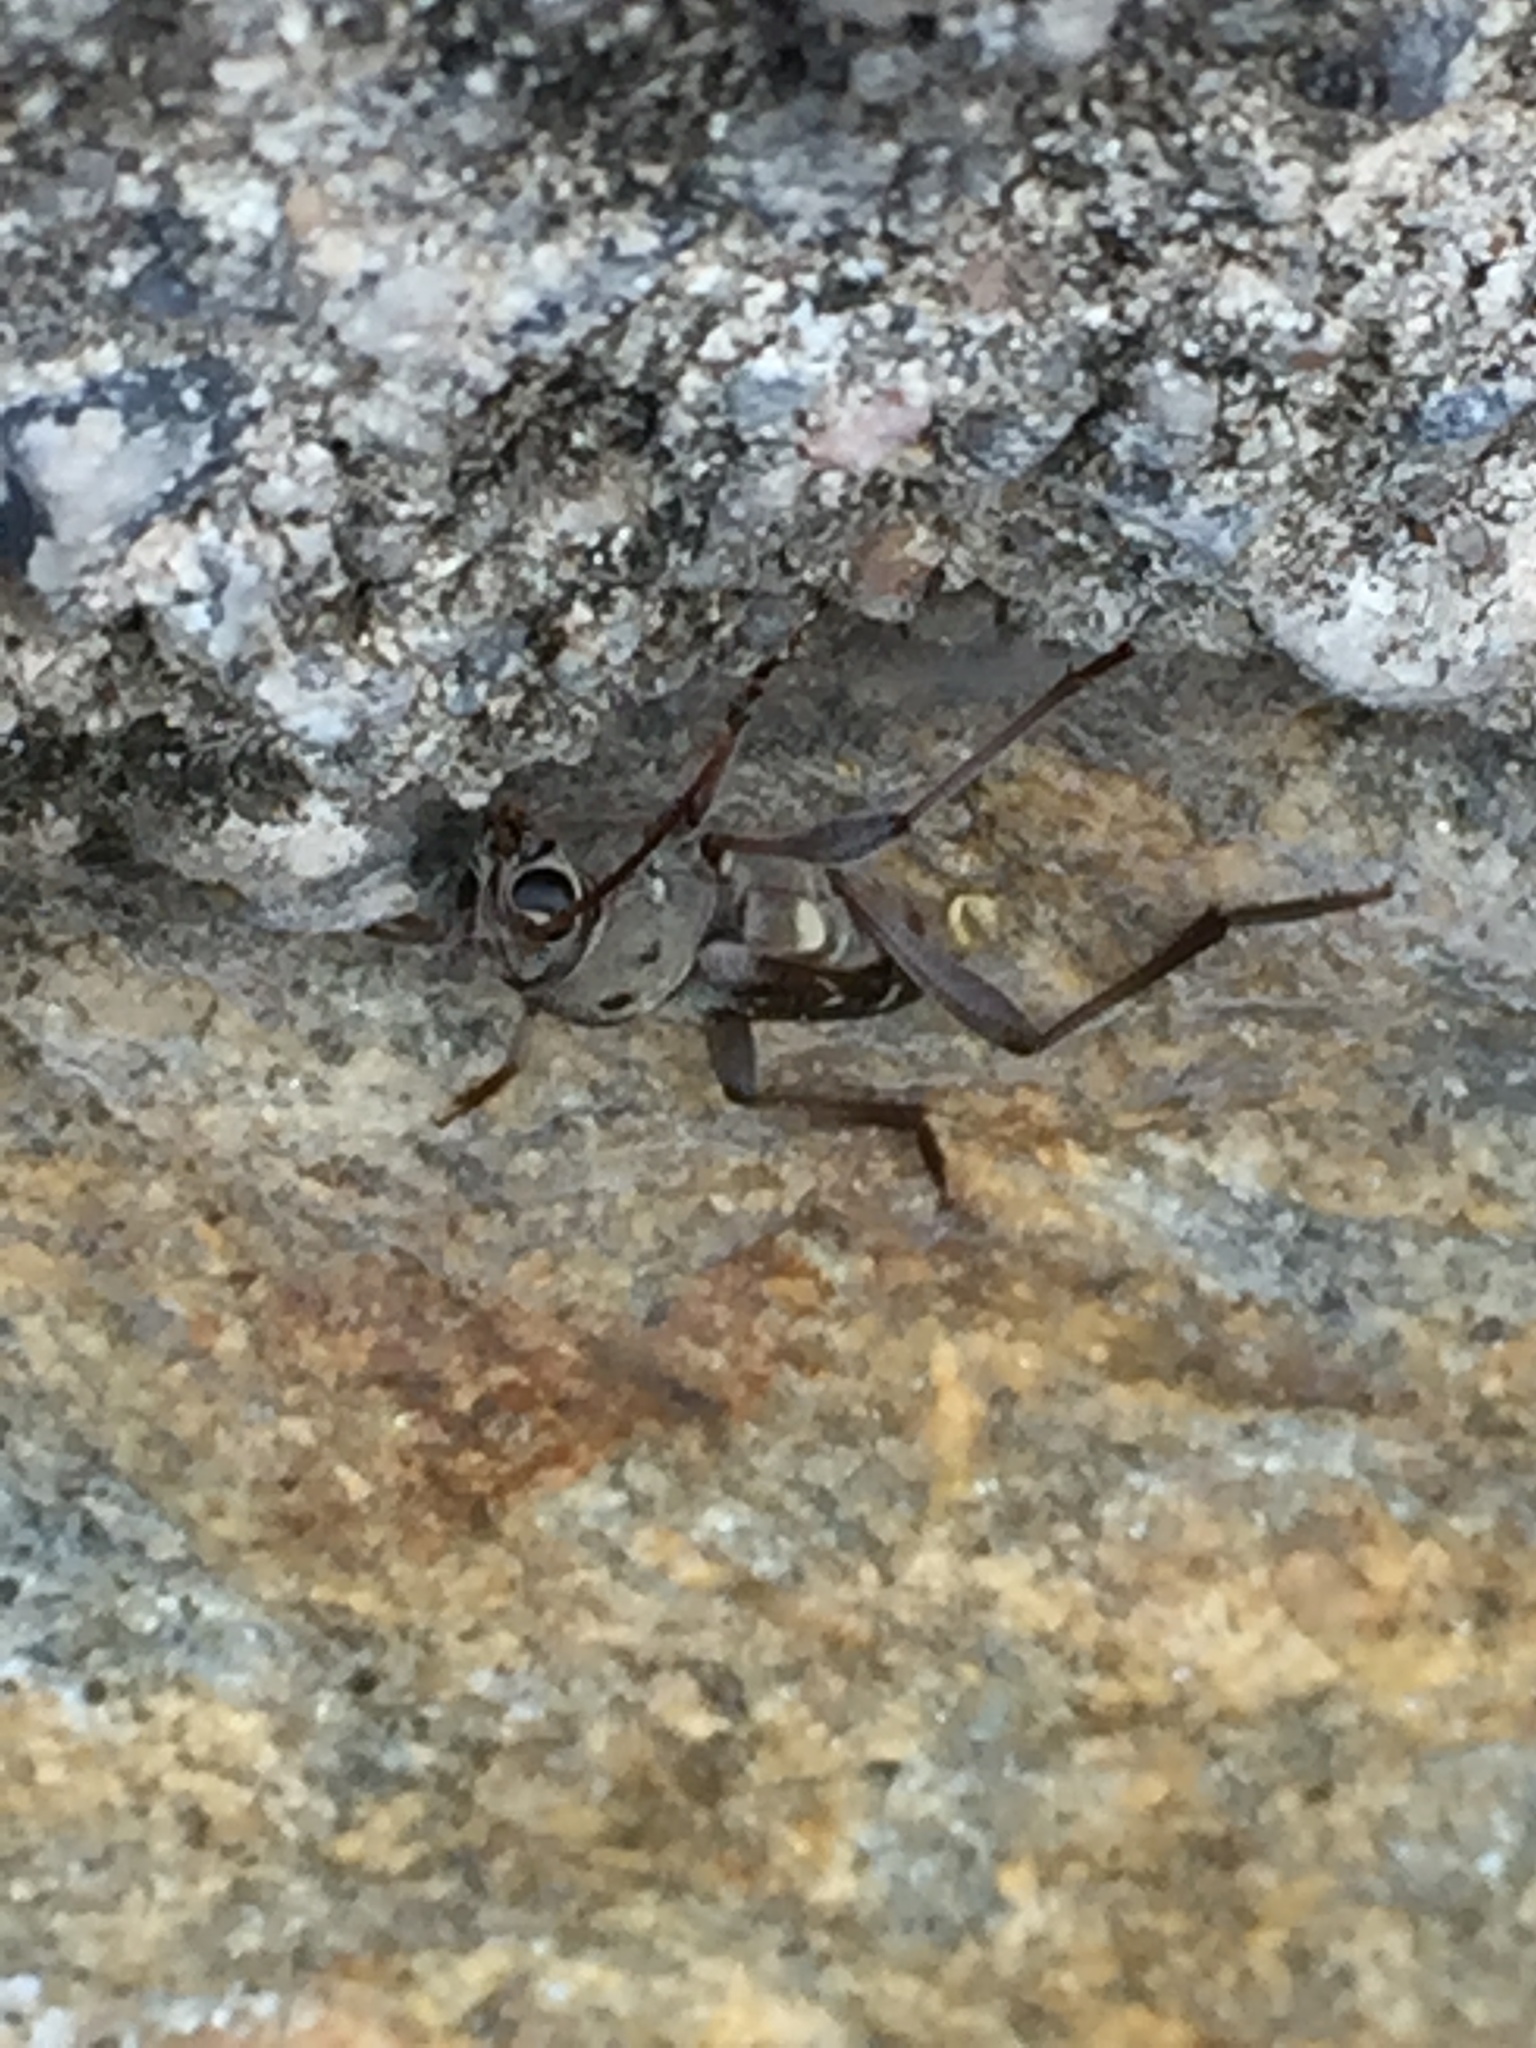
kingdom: Animalia
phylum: Arthropoda
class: Insecta
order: Coleoptera
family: Cerambycidae
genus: Xylotrechus
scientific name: Xylotrechus smei
